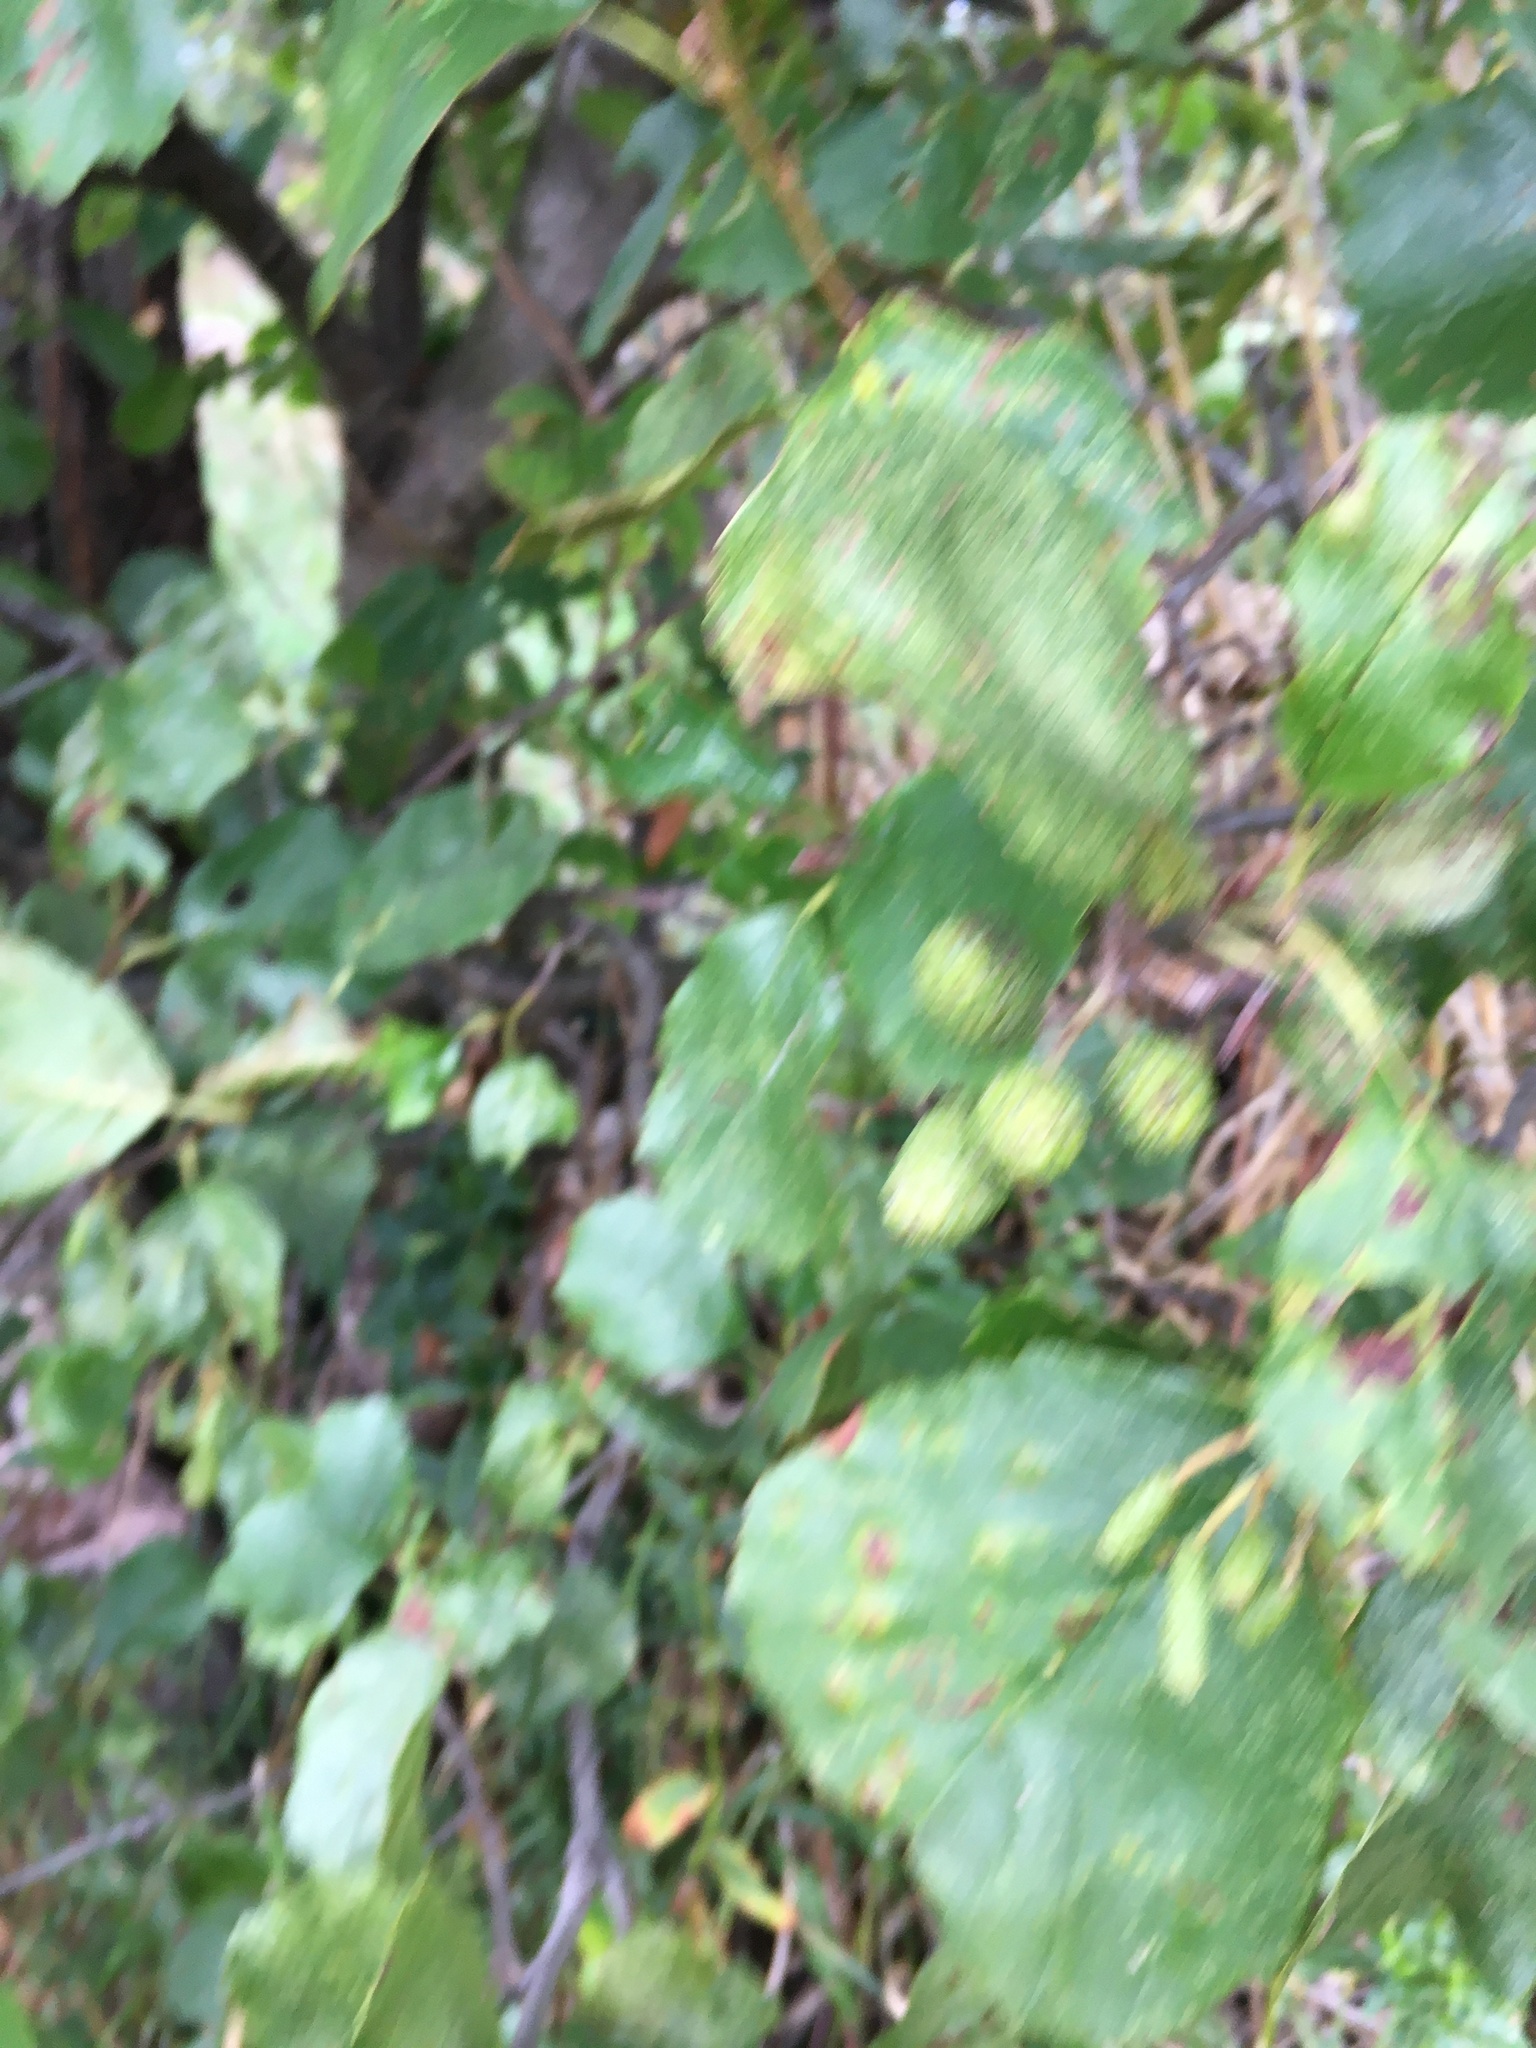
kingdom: Plantae
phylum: Tracheophyta
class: Magnoliopsida
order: Fagales
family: Betulaceae
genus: Alnus
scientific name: Alnus glutinosa
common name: Black alder
